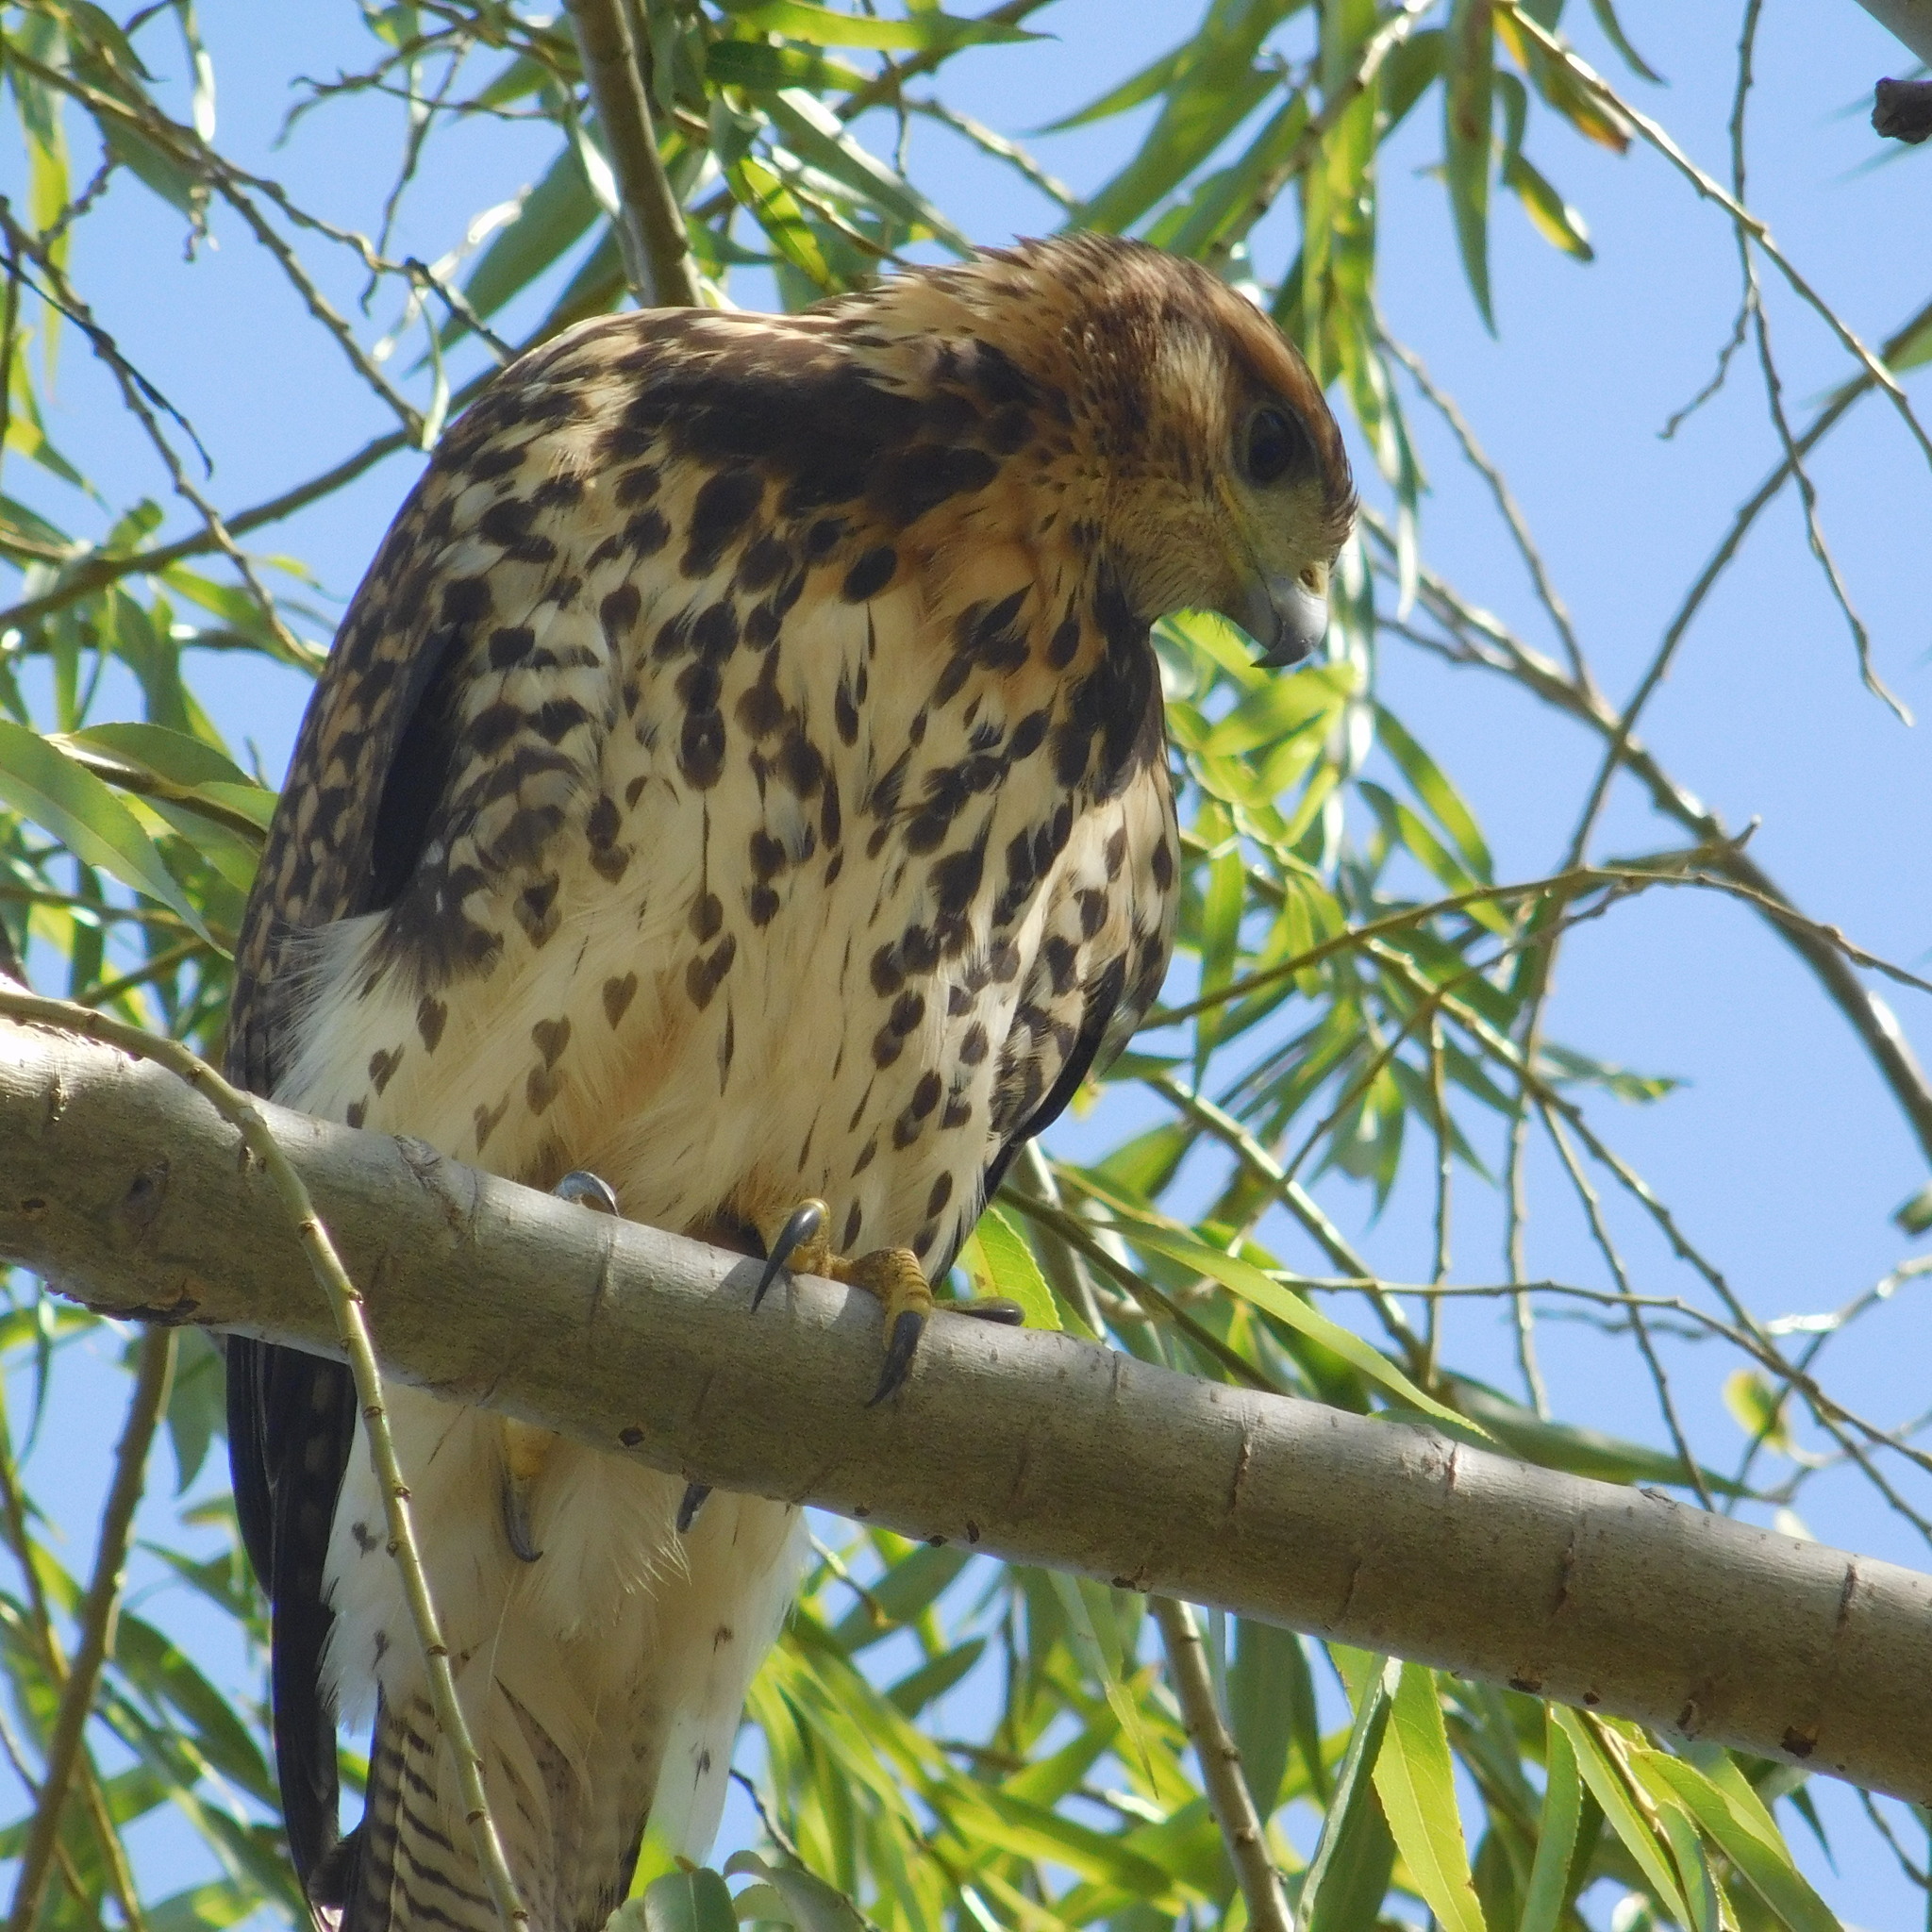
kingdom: Animalia
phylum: Chordata
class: Aves
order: Accipitriformes
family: Accipitridae
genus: Parabuteo
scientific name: Parabuteo unicinctus
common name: Harris's hawk
